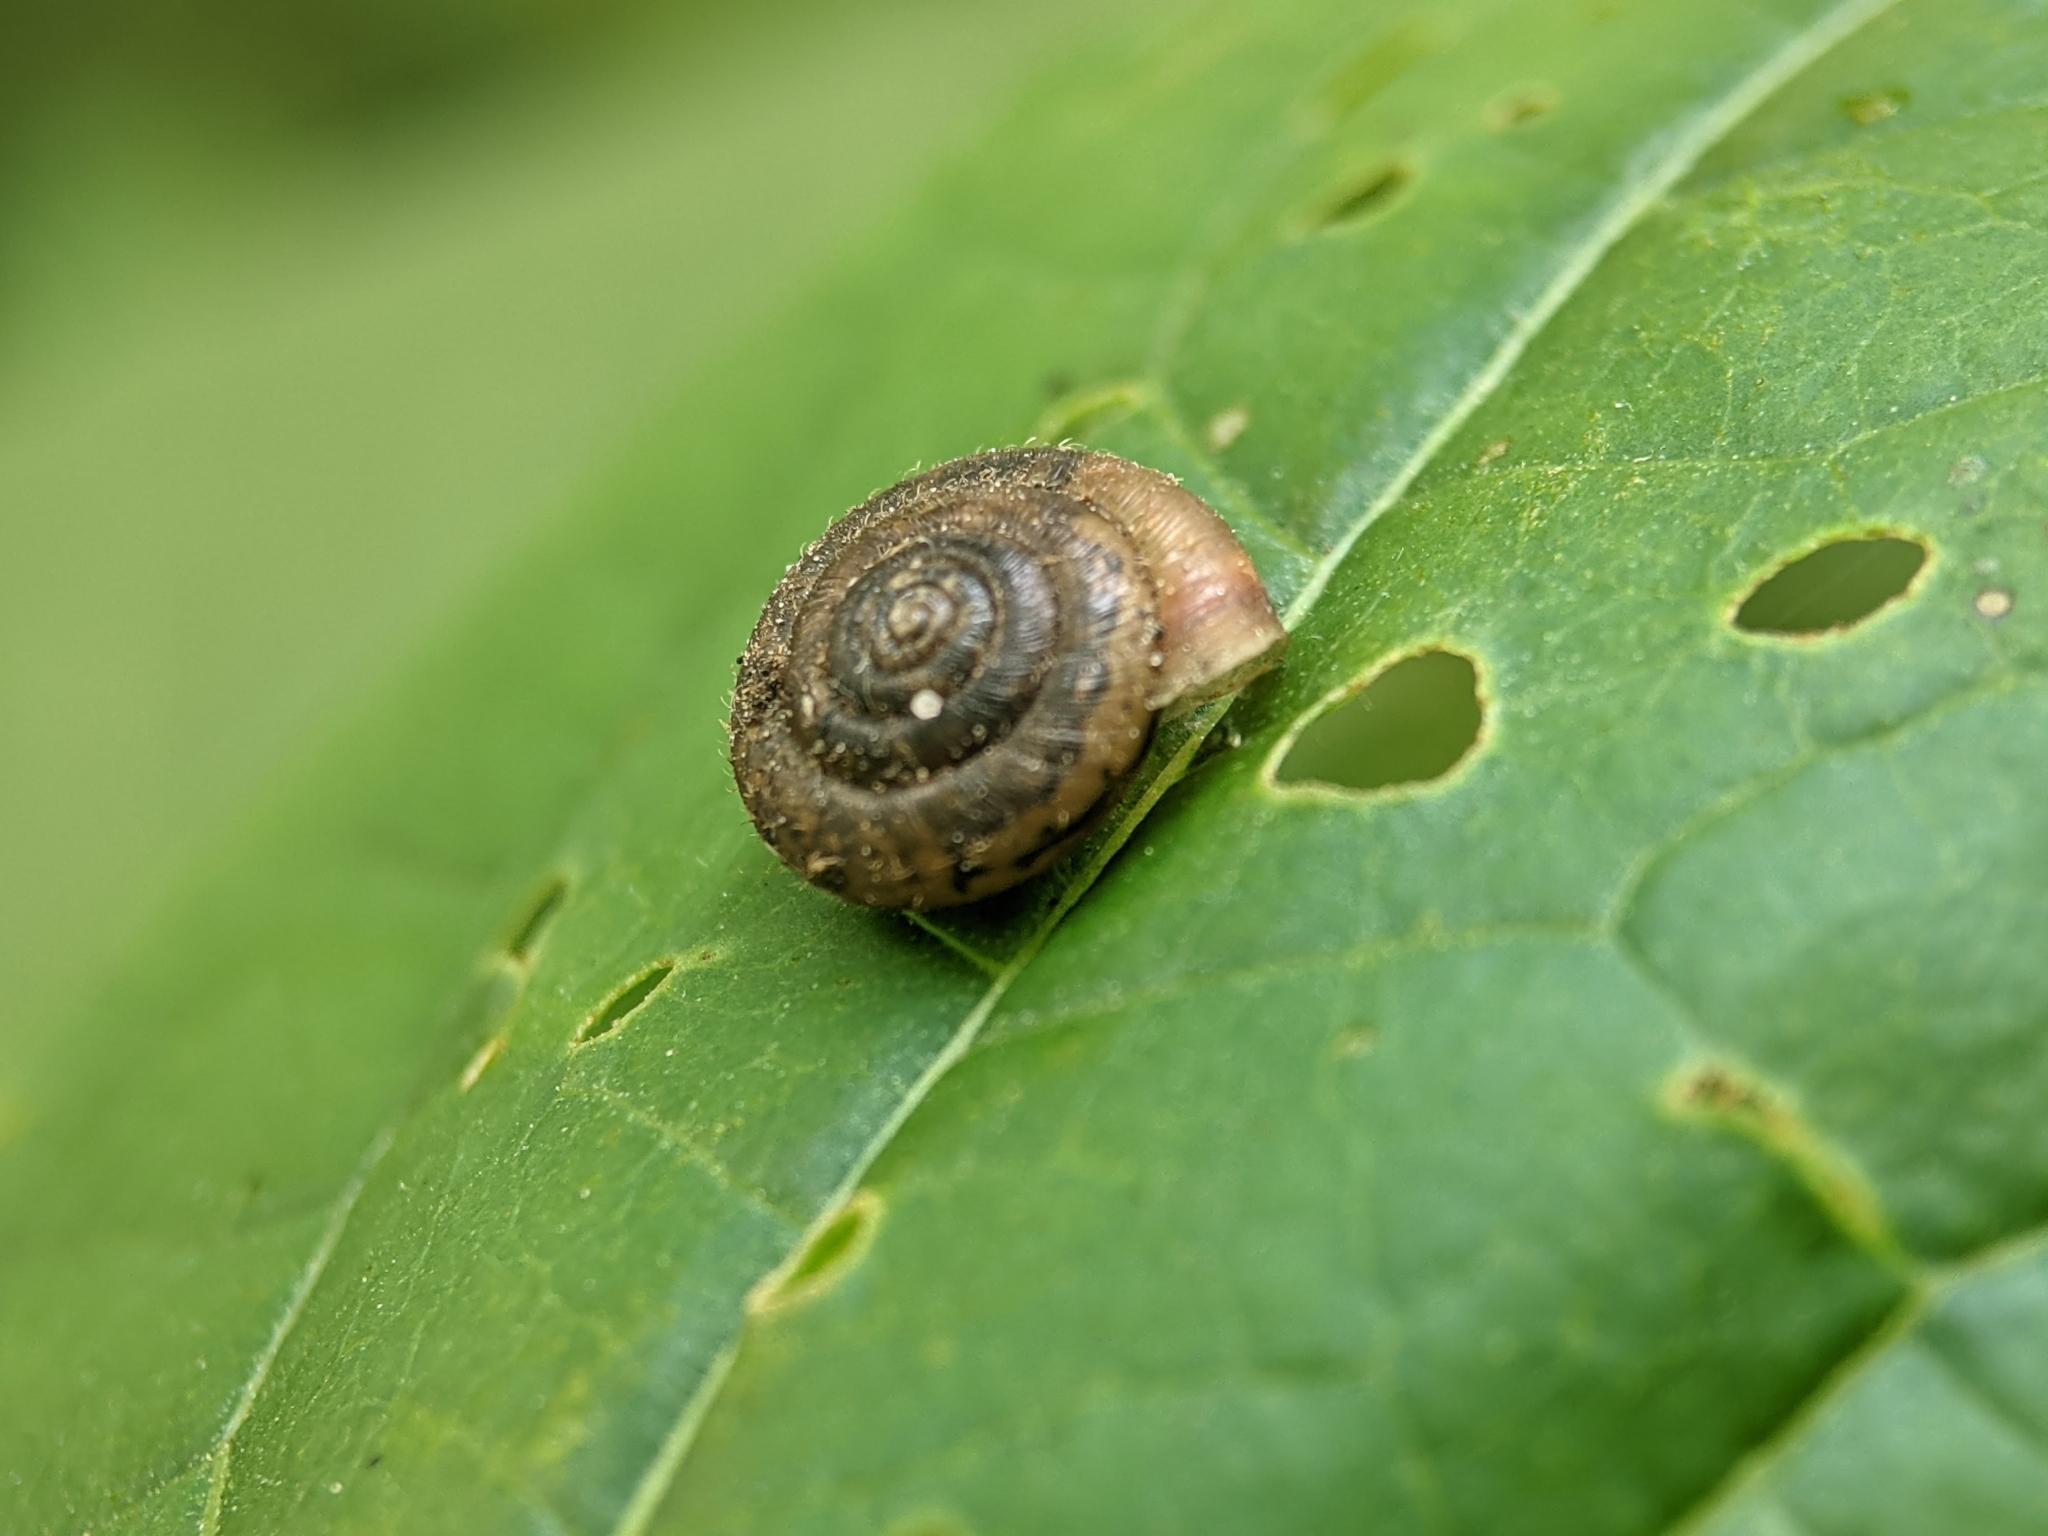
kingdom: Animalia
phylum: Mollusca
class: Gastropoda
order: Stylommatophora
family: Hygromiidae
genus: Trochulus
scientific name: Trochulus hispidus
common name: Hairy snail
